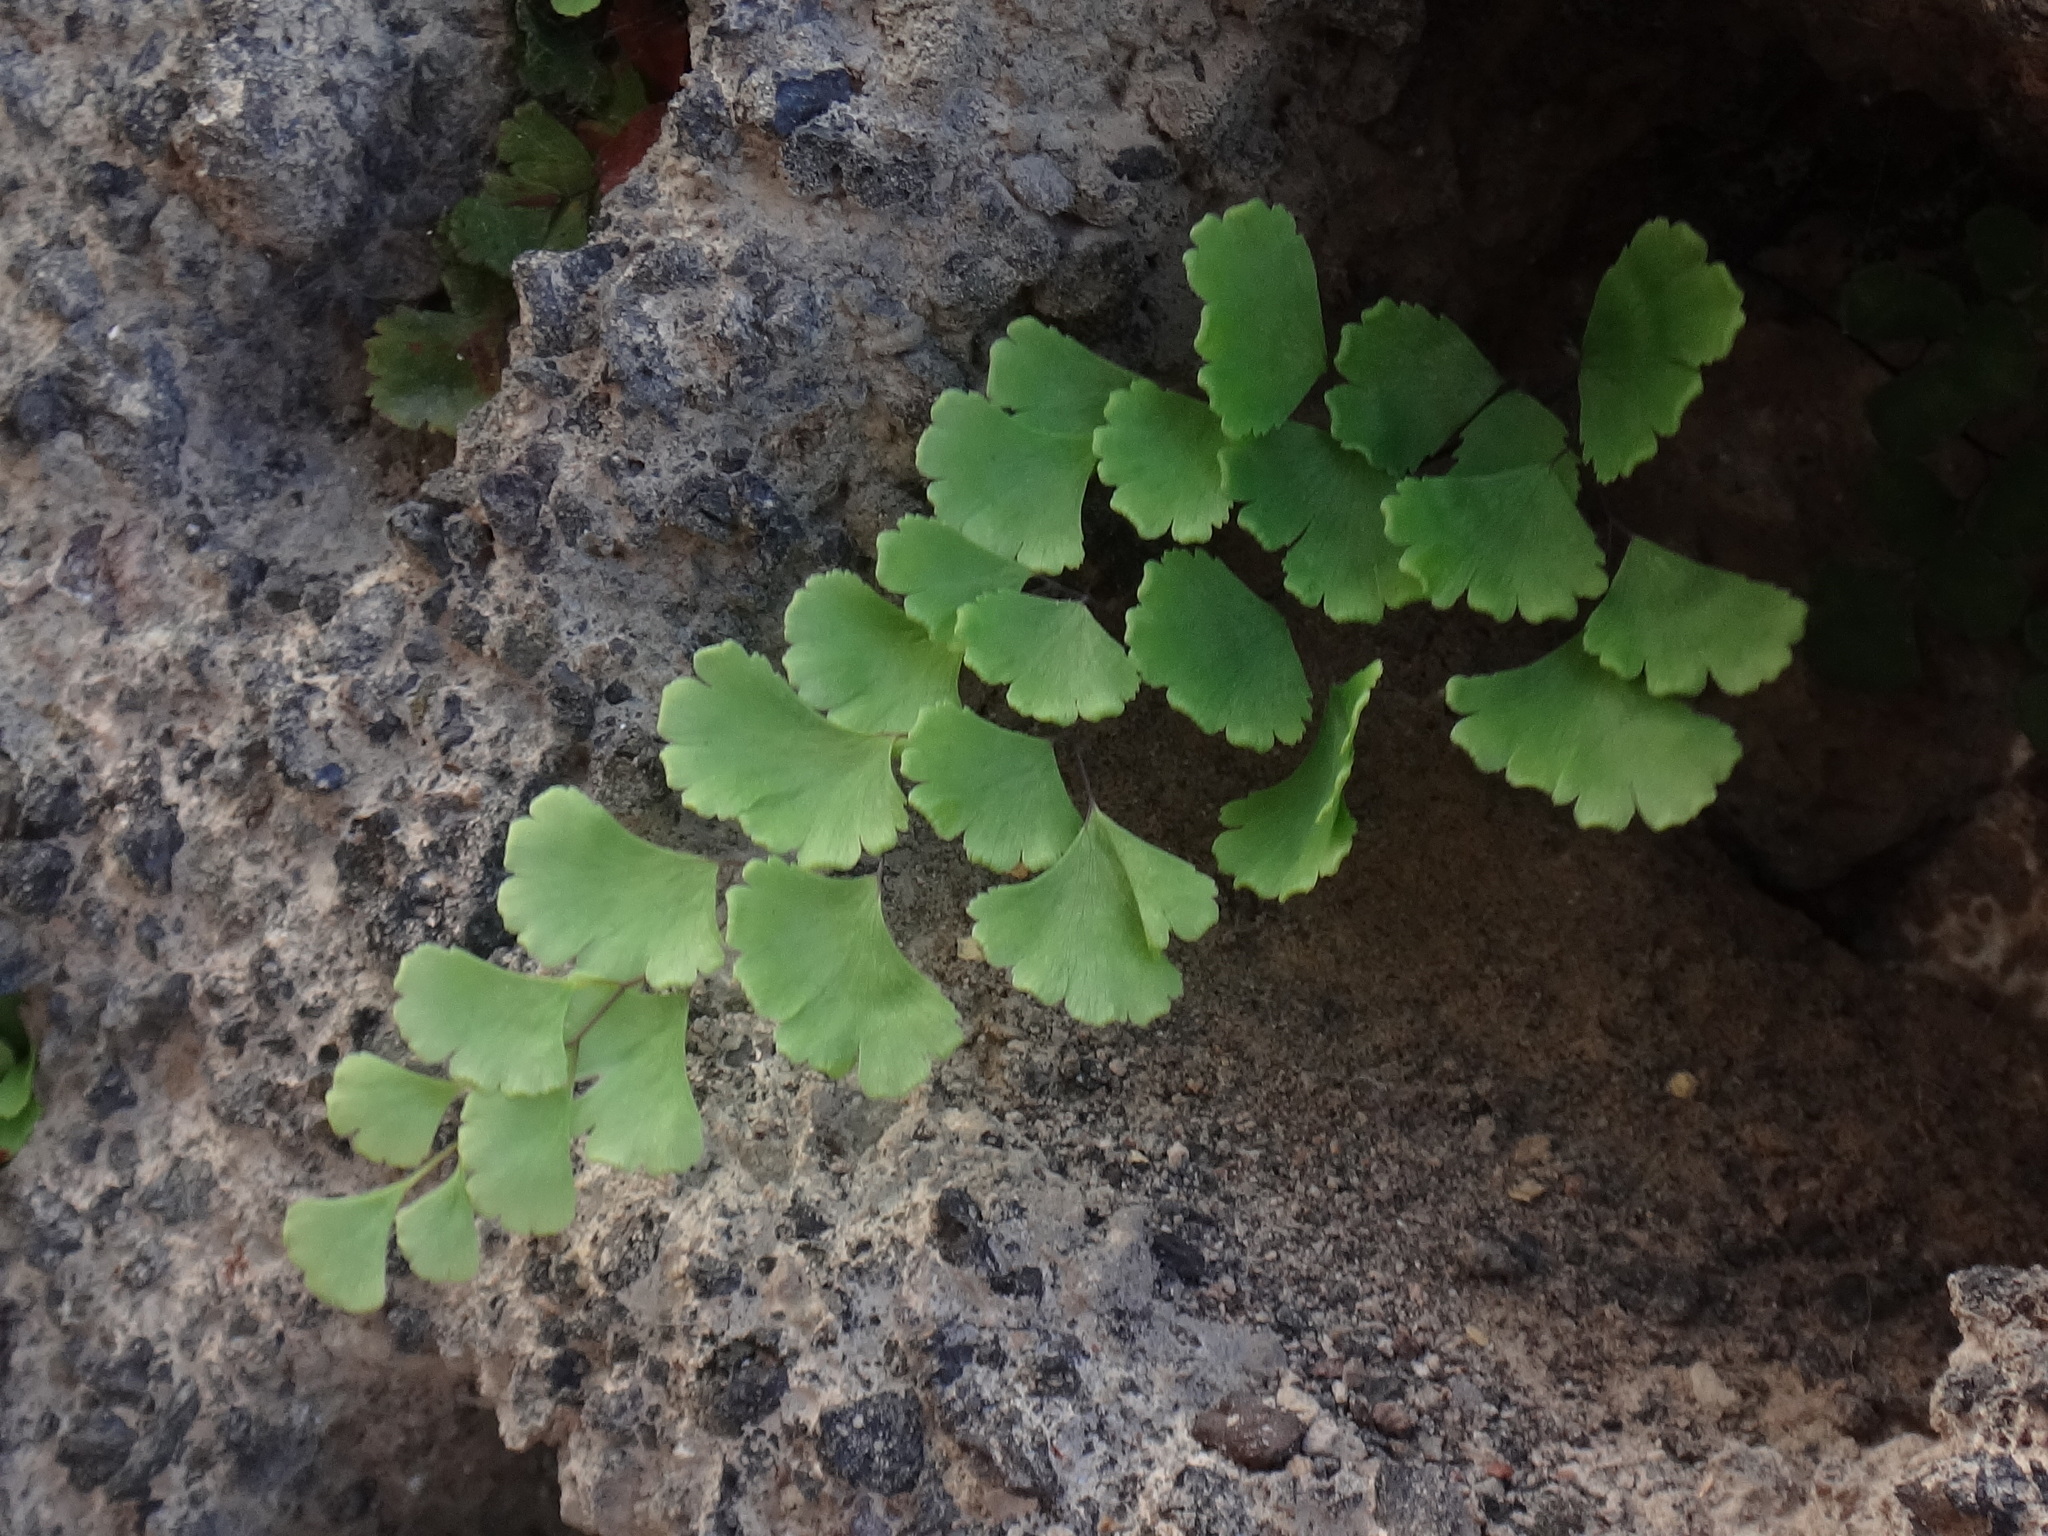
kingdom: Plantae
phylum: Tracheophyta
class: Polypodiopsida
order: Polypodiales
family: Pteridaceae
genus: Adiantum
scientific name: Adiantum capillus-veneris
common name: Maidenhair fern
